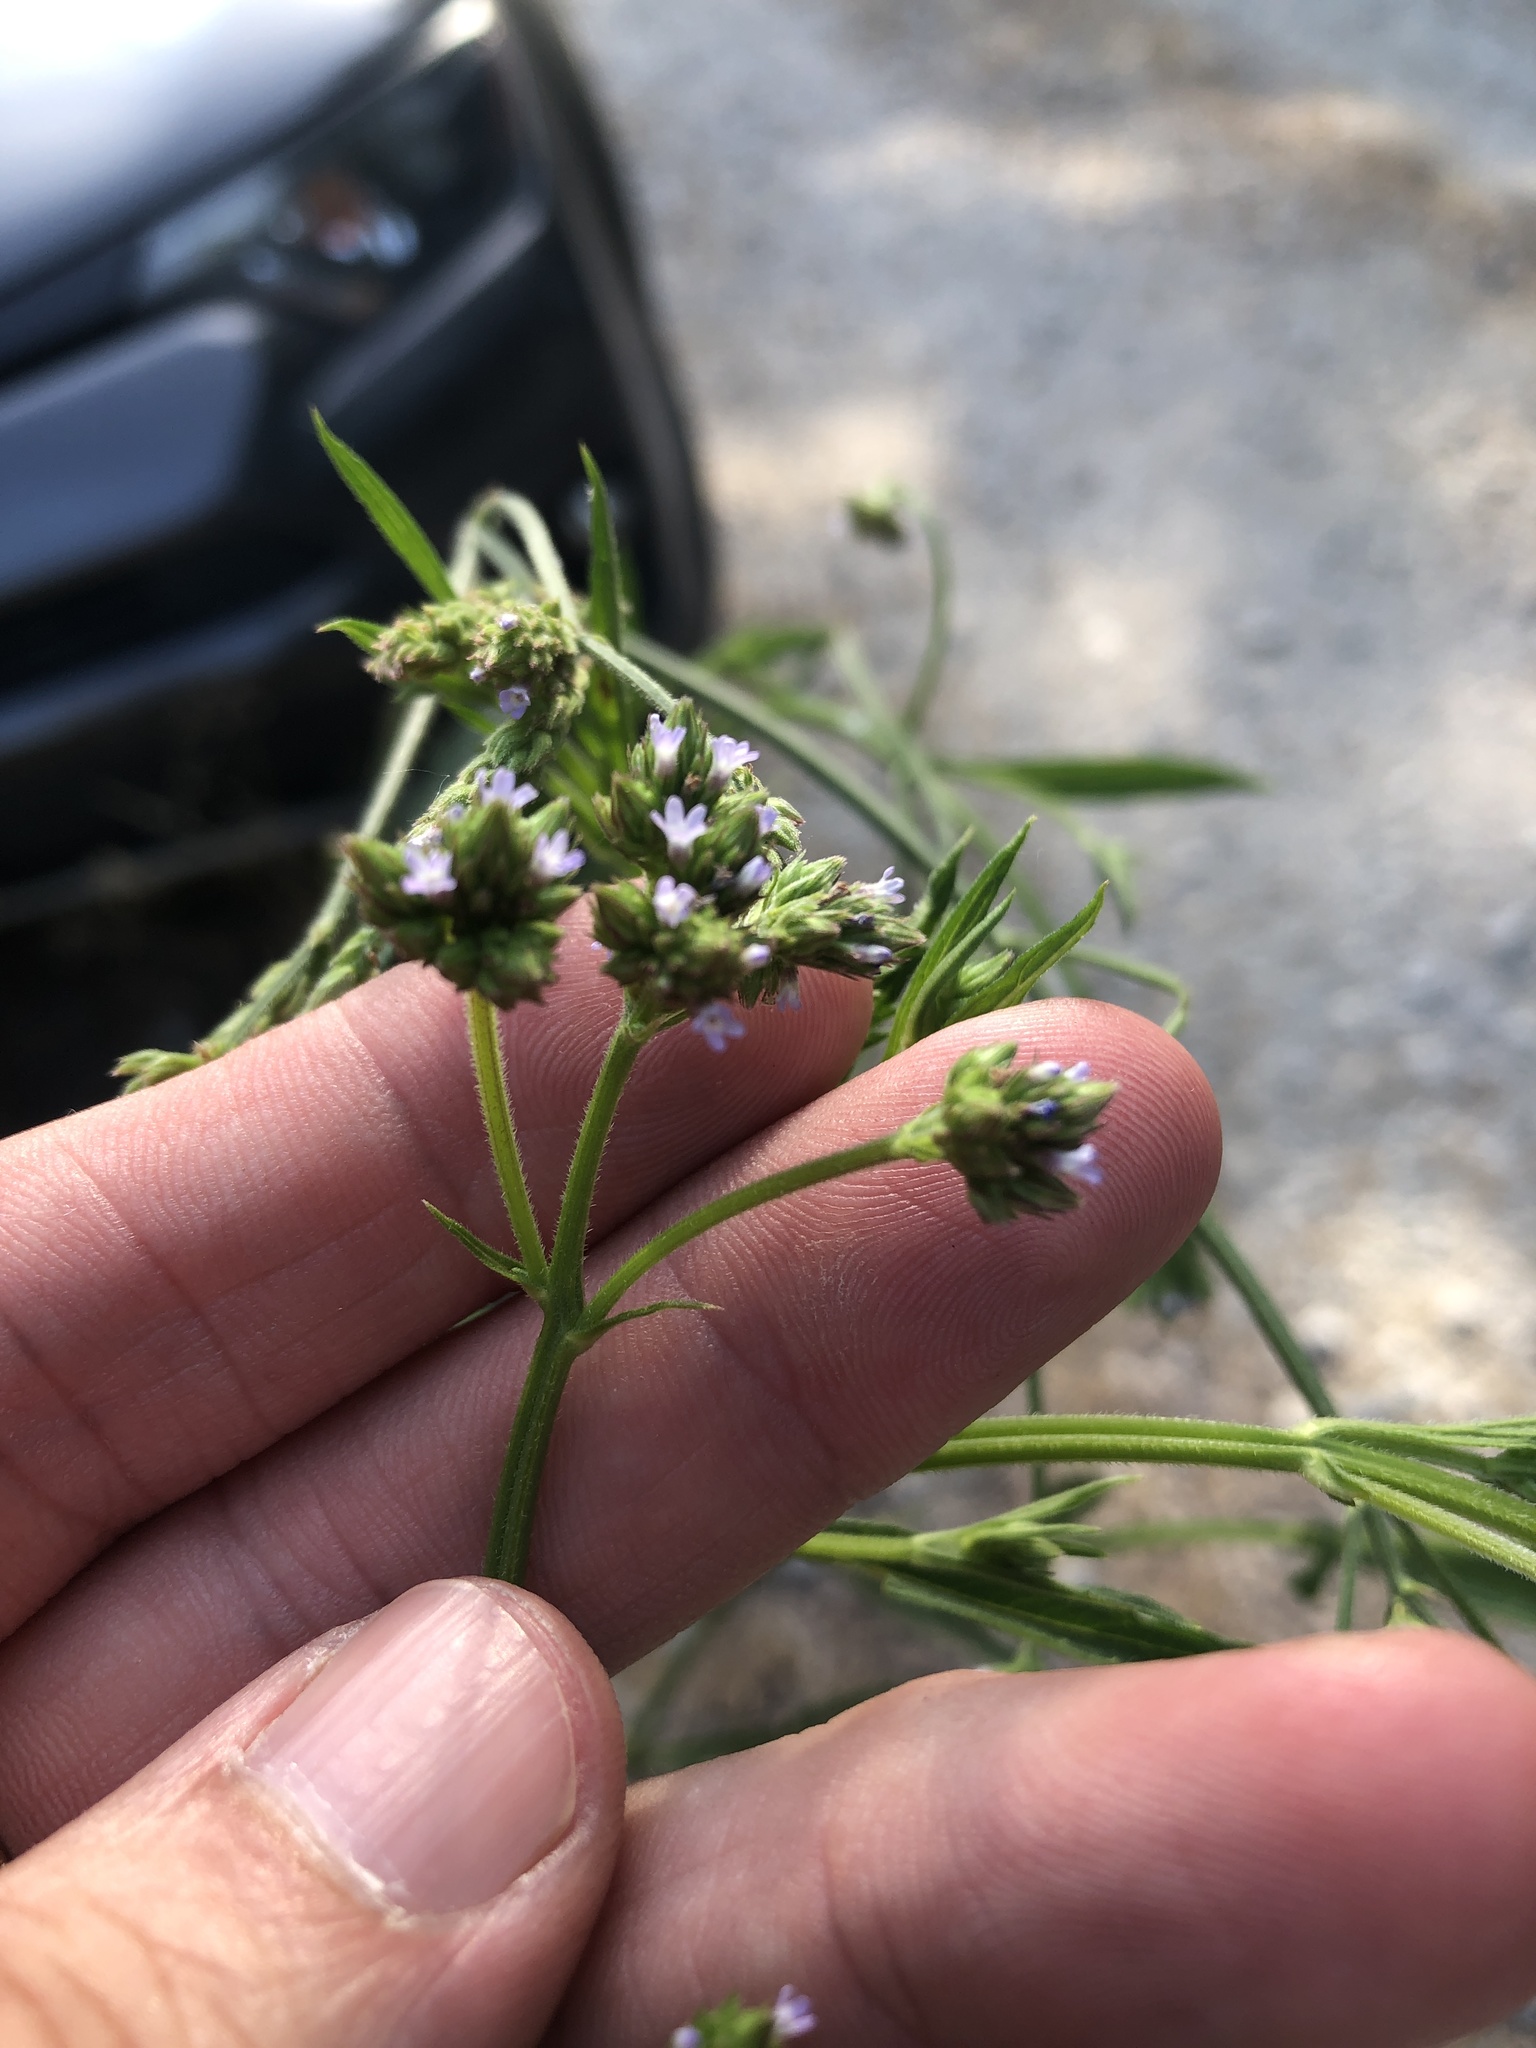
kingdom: Plantae
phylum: Tracheophyta
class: Magnoliopsida
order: Lamiales
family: Verbenaceae
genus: Verbena
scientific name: Verbena brasiliensis
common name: Brazilian vervain
